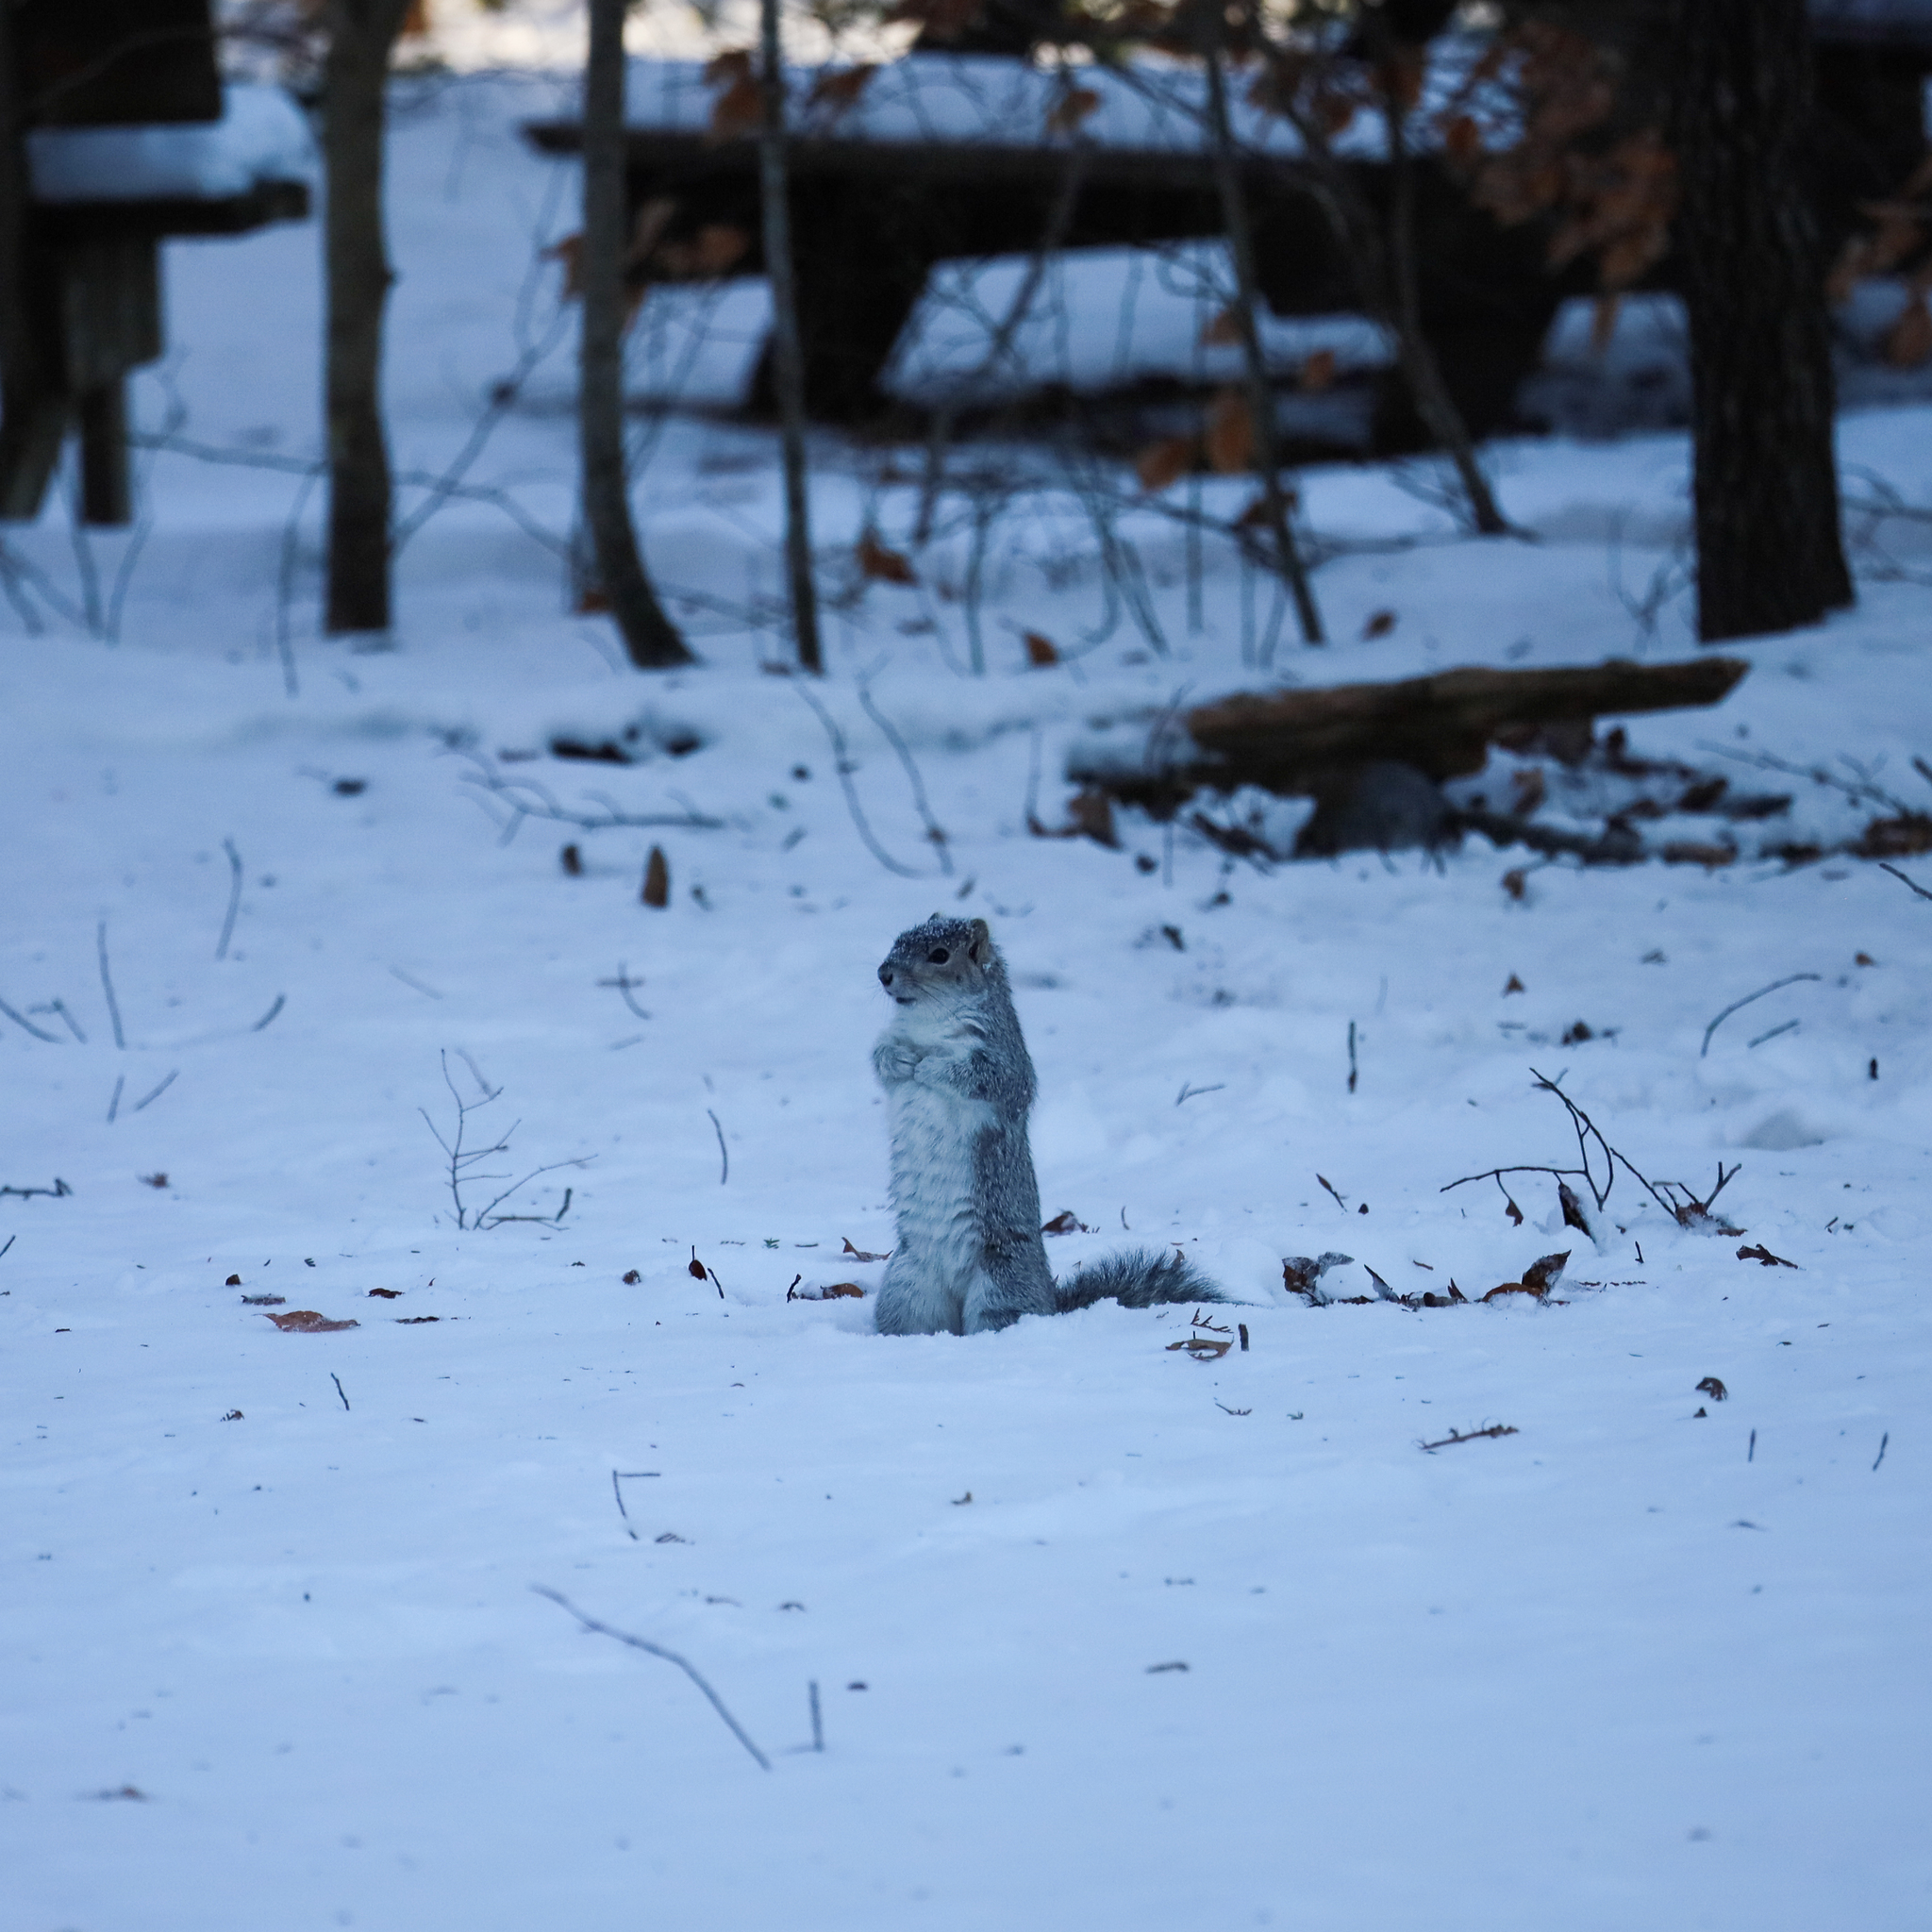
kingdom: Animalia
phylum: Chordata
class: Mammalia
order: Rodentia
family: Sciuridae
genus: Sciurus
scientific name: Sciurus carolinensis
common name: Eastern gray squirrel
